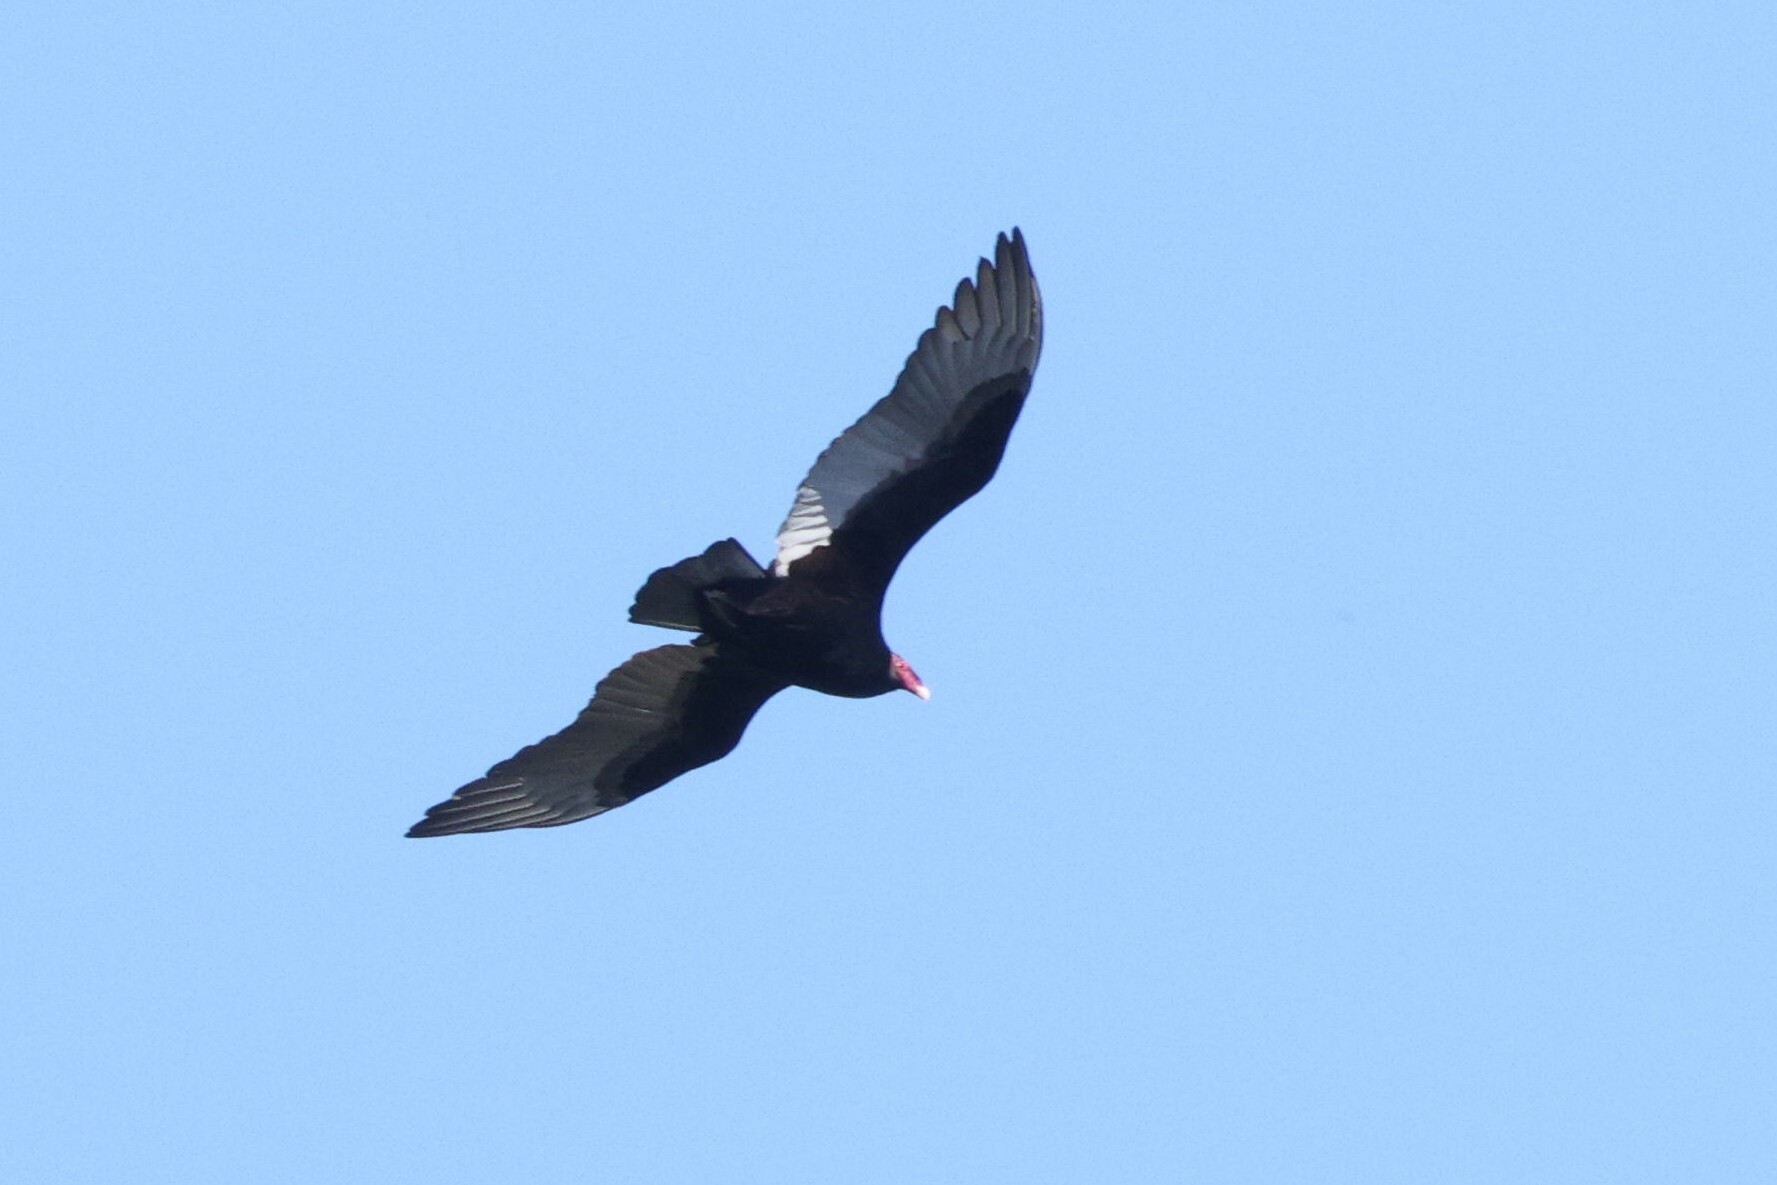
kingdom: Animalia
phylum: Chordata
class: Aves
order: Accipitriformes
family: Cathartidae
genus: Cathartes
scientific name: Cathartes aura
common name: Turkey vulture
